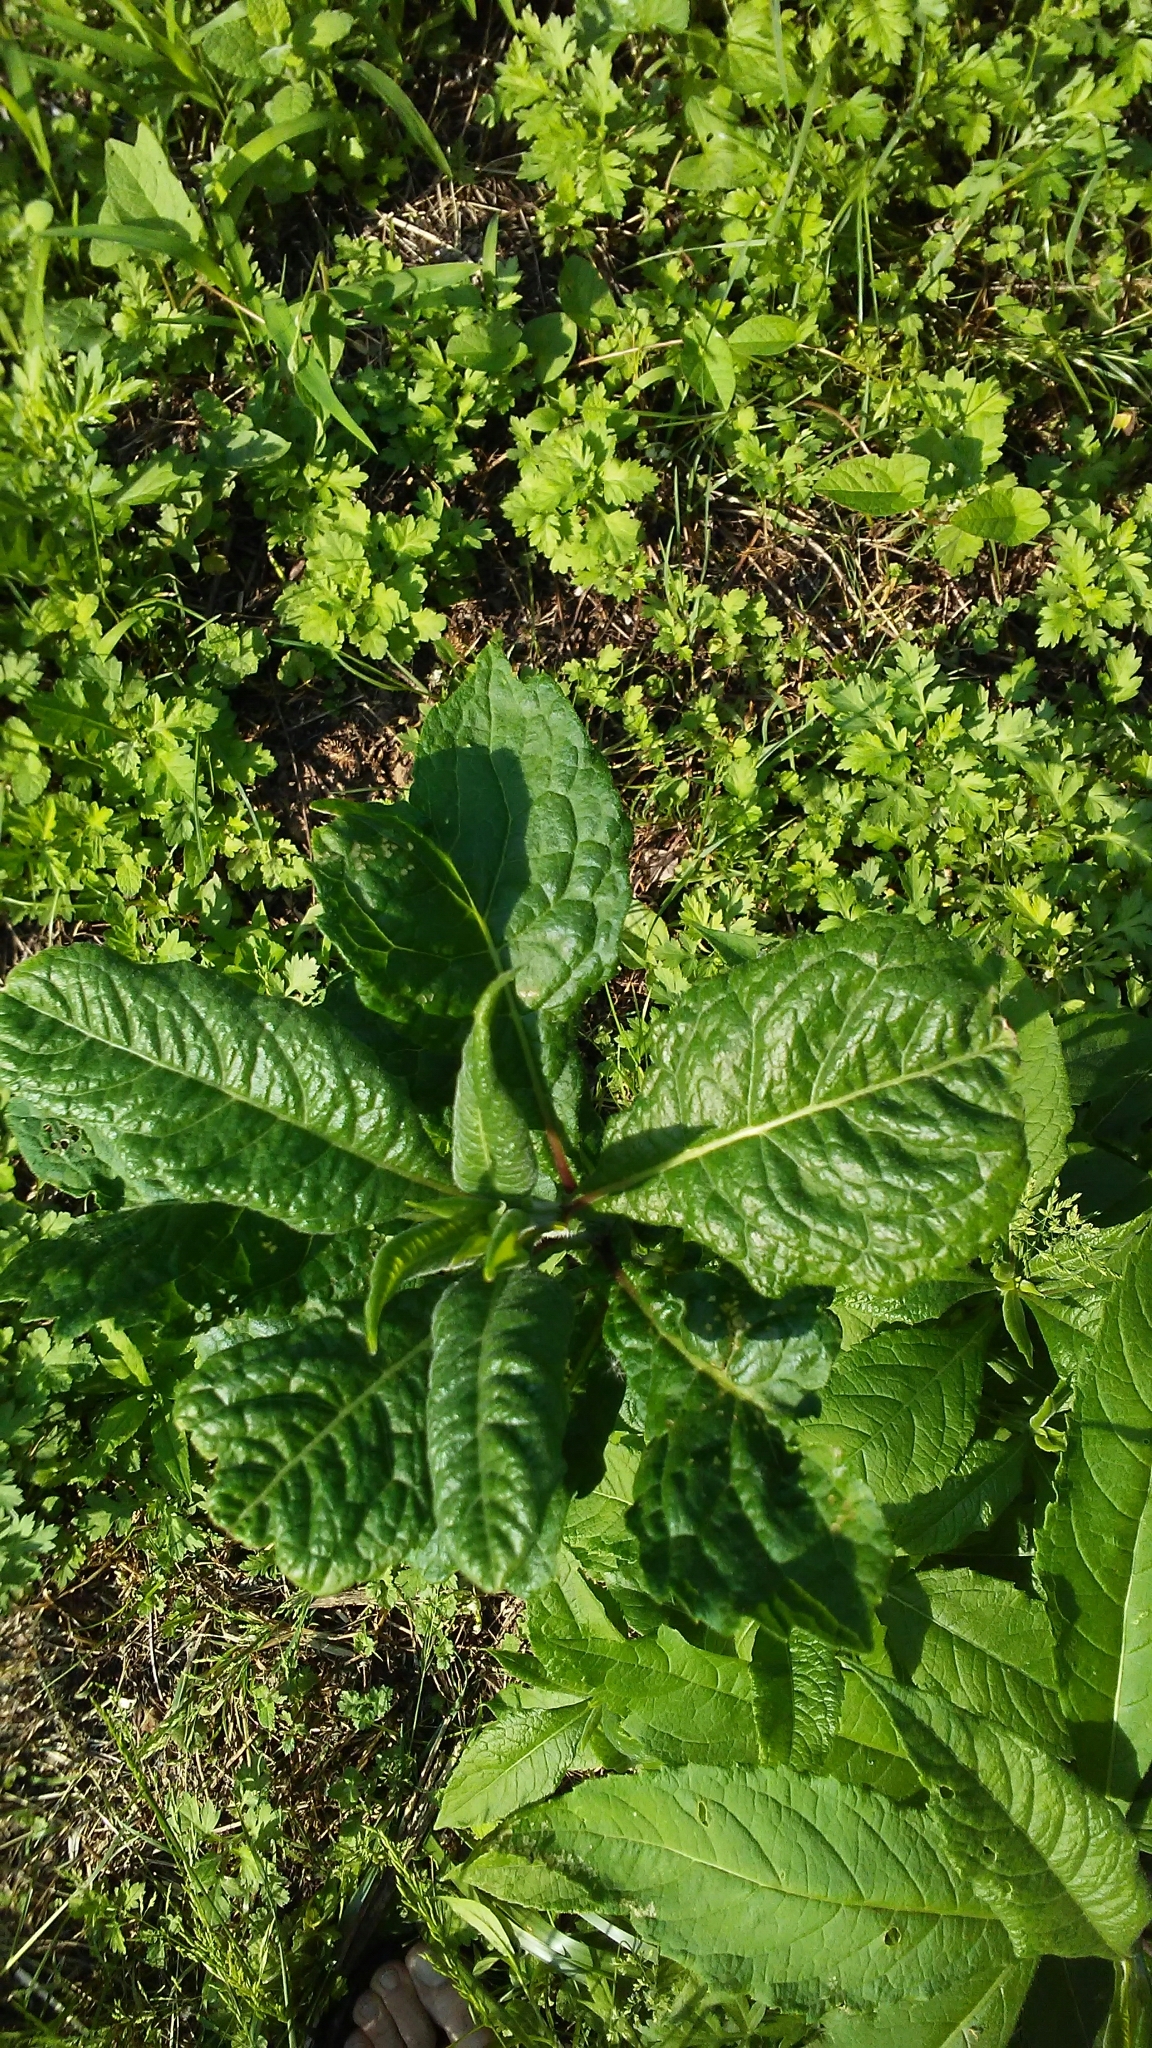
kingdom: Plantae
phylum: Tracheophyta
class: Magnoliopsida
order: Caryophyllales
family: Phytolaccaceae
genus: Phytolacca
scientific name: Phytolacca americana
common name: American pokeweed
